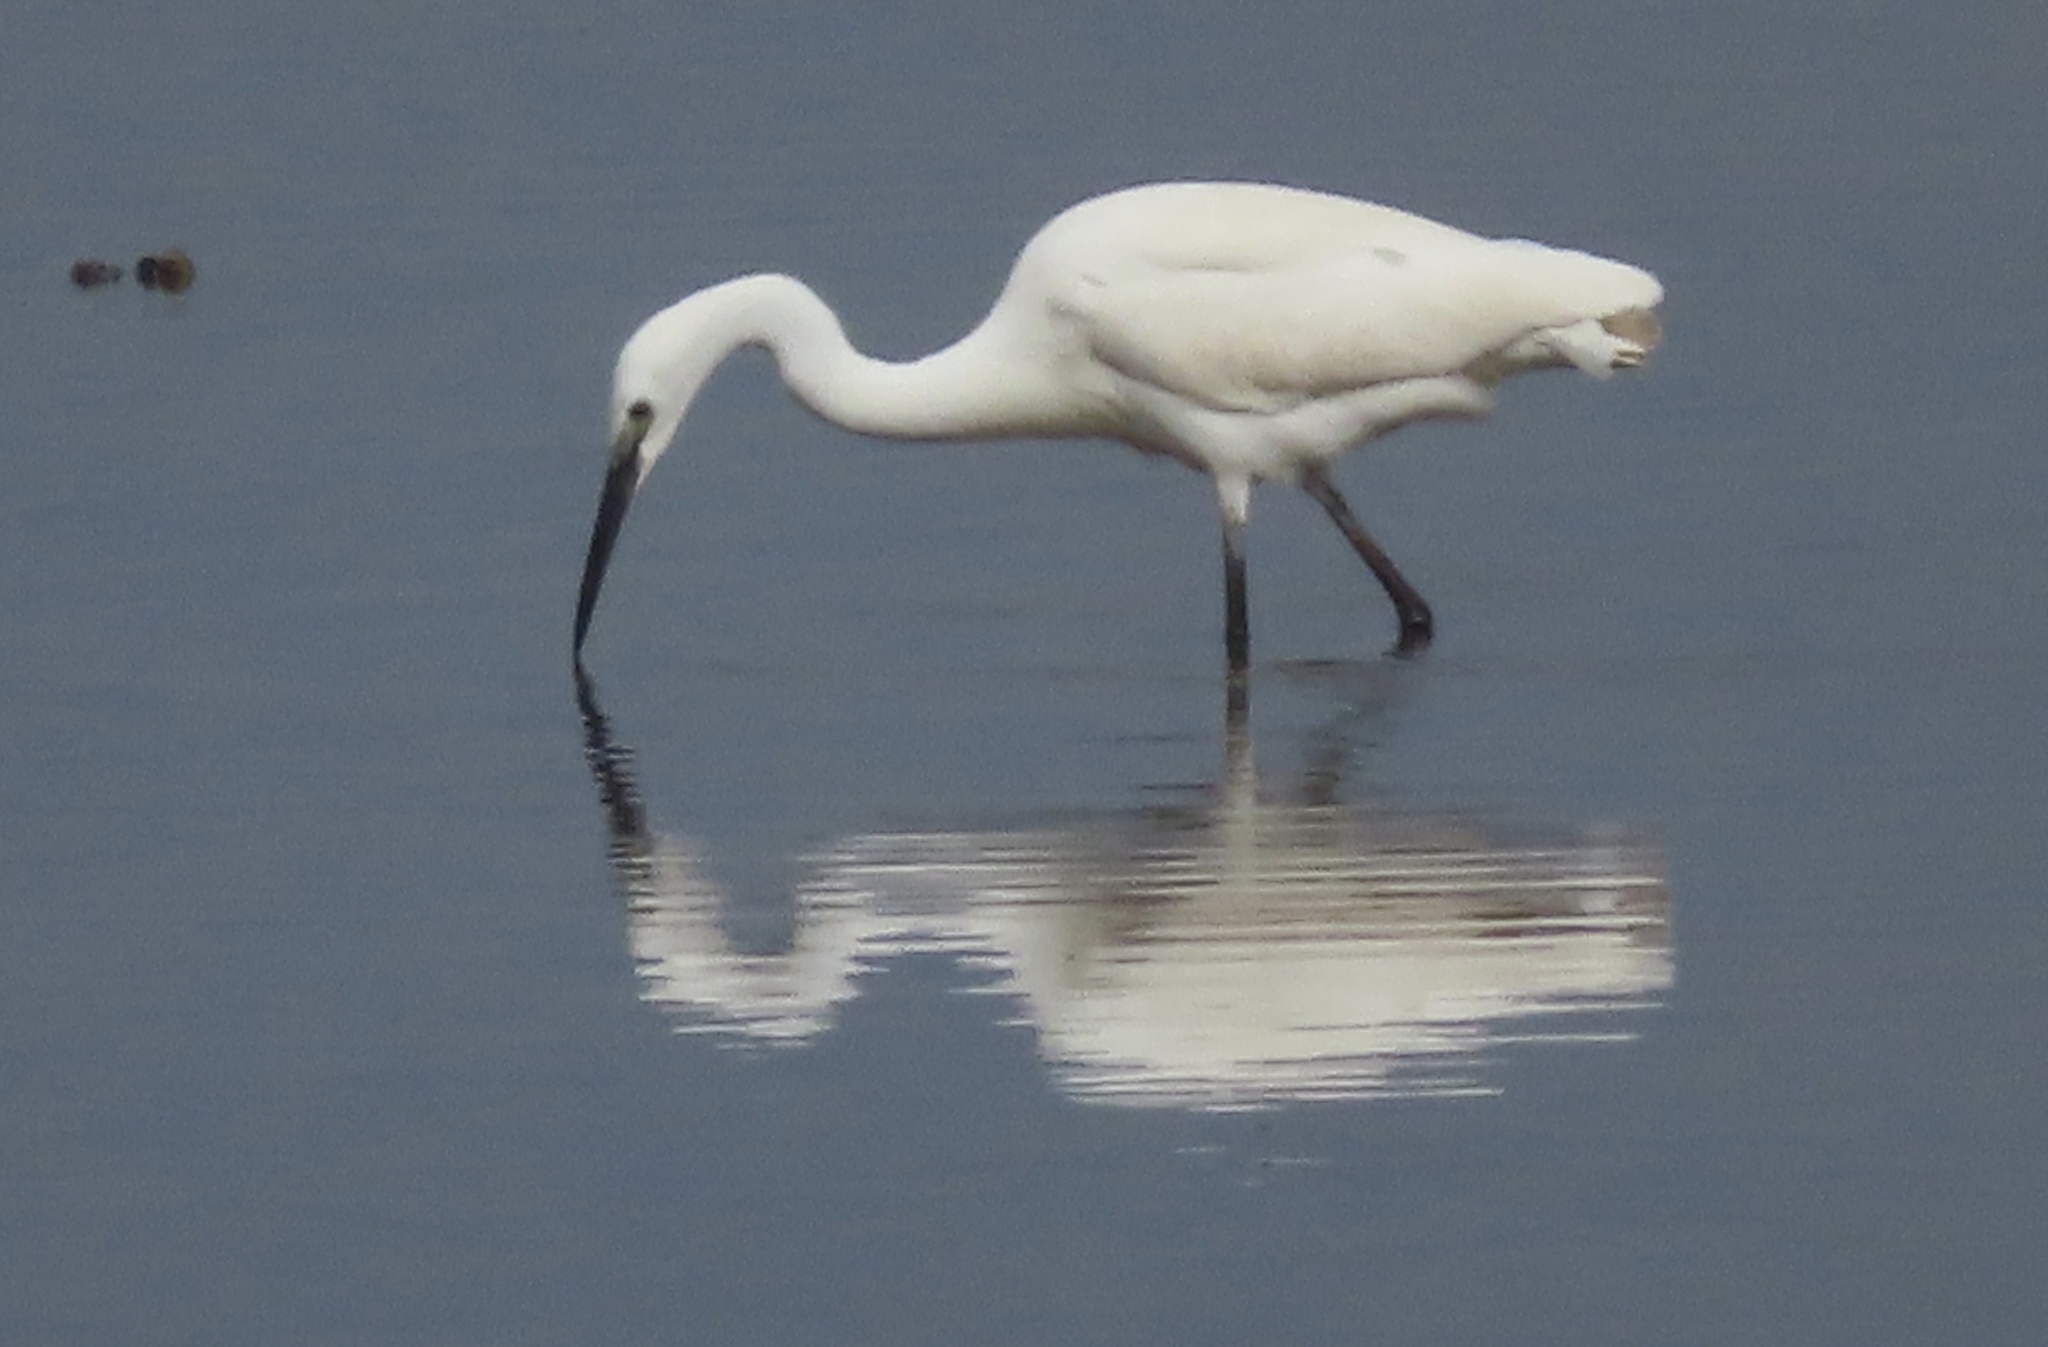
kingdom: Animalia
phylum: Chordata
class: Aves
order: Pelecaniformes
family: Ardeidae
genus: Egretta
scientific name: Egretta garzetta
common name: Little egret
